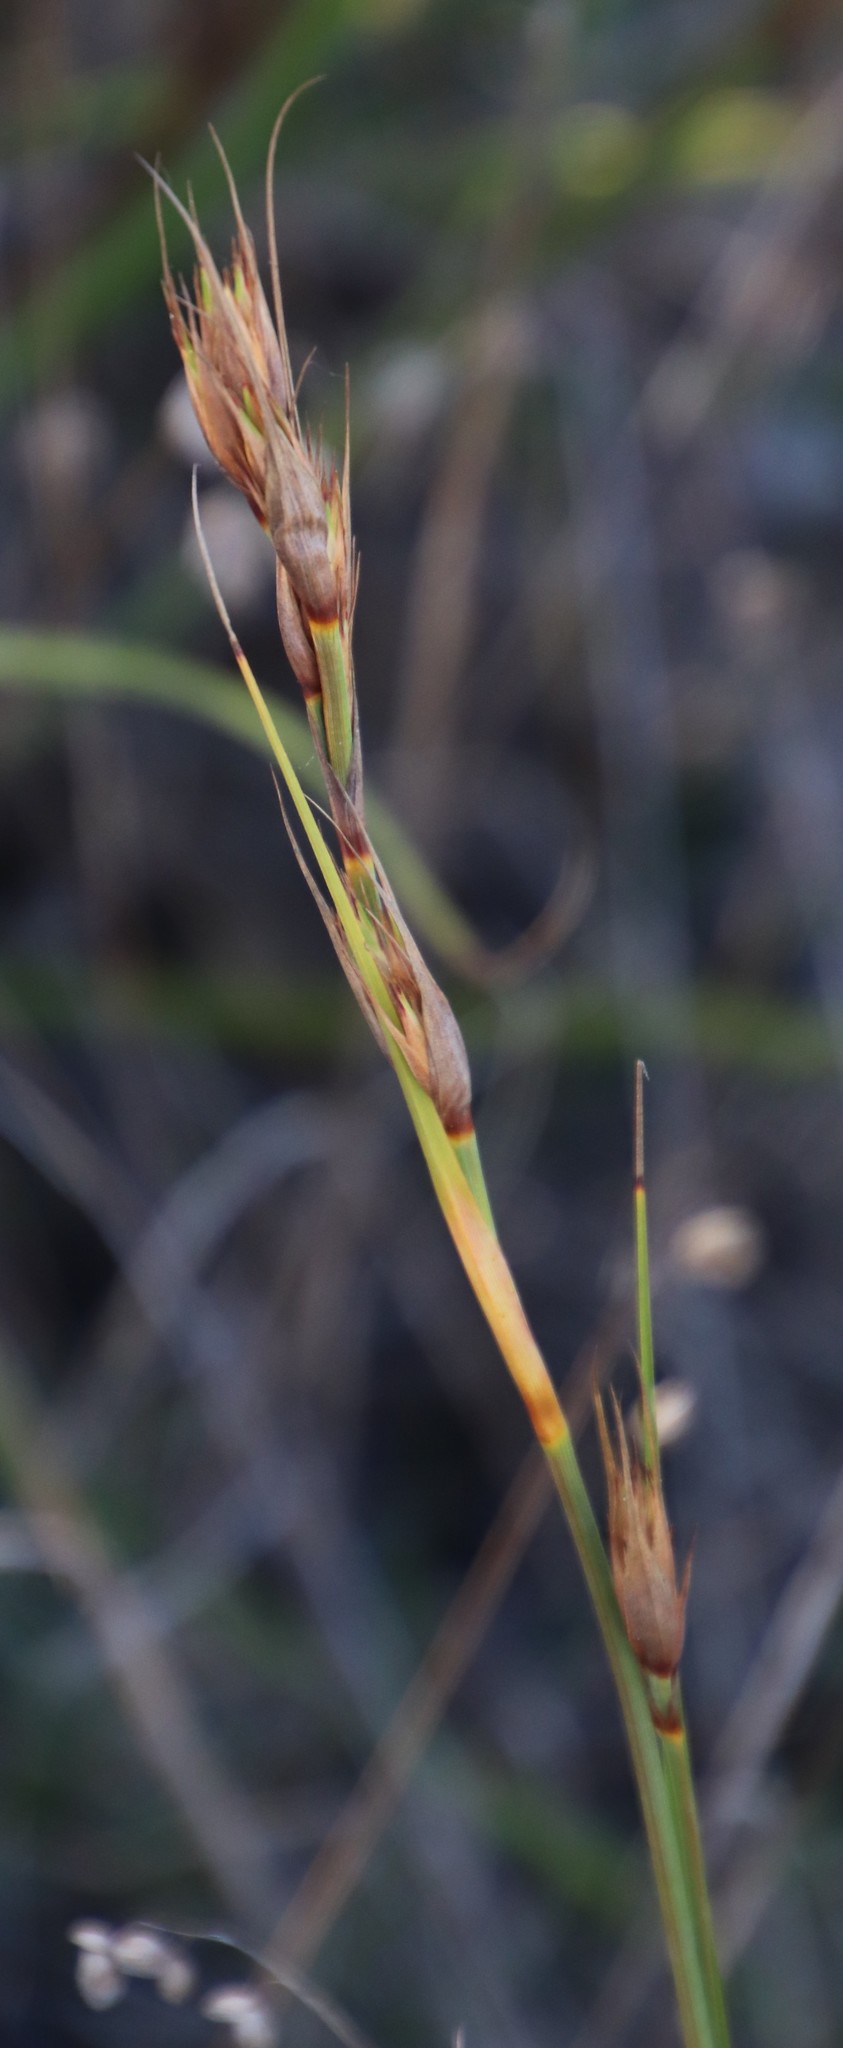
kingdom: Plantae
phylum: Tracheophyta
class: Liliopsida
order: Poales
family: Cyperaceae
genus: Tetraria
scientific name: Tetraria eximia
